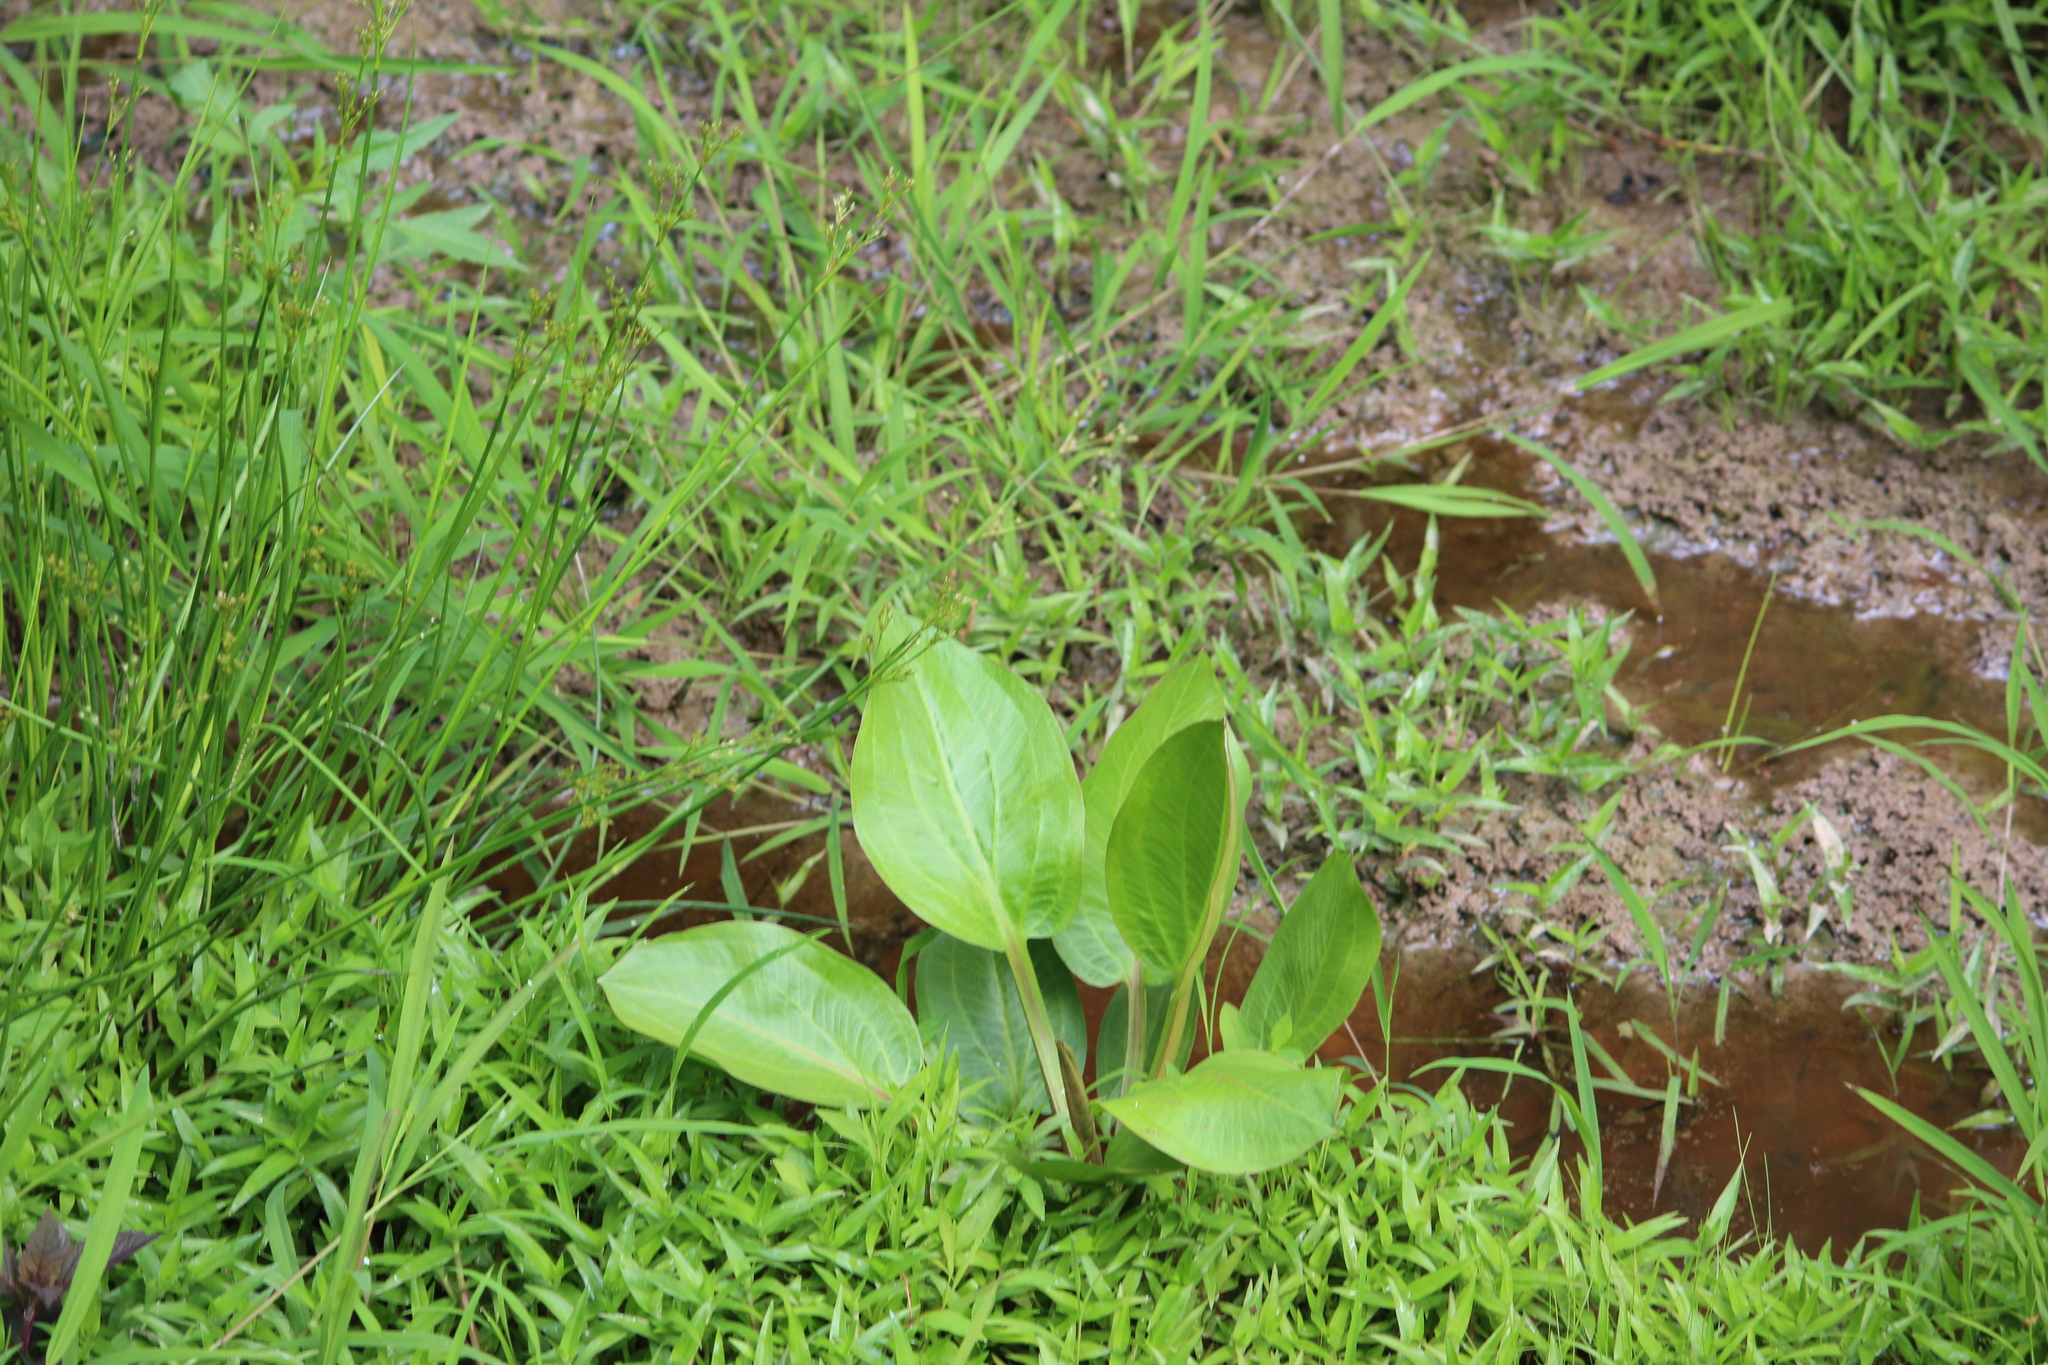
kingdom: Plantae
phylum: Tracheophyta
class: Liliopsida
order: Alismatales
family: Alismataceae
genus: Alisma
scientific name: Alisma subcordatum
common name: Southern water-plantain
